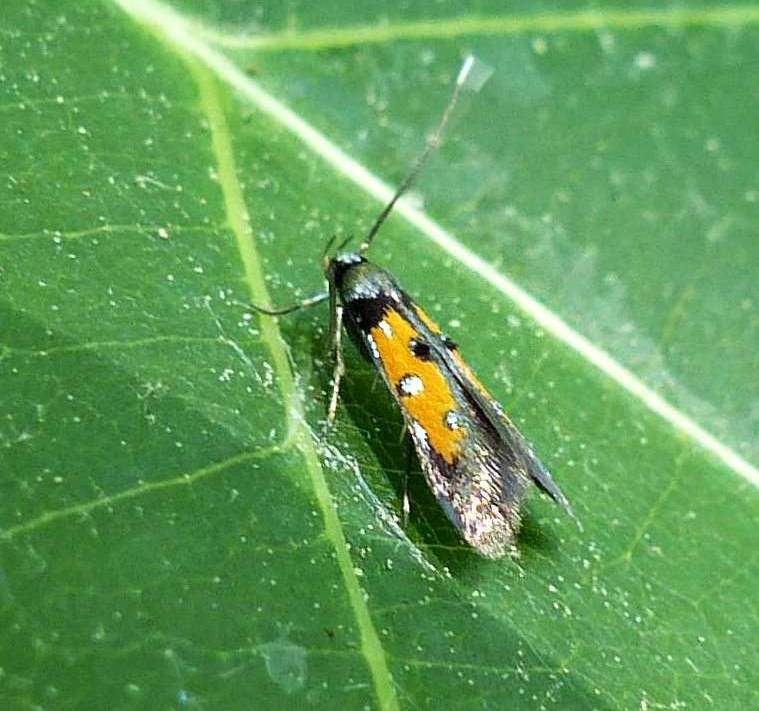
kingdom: Animalia
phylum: Arthropoda
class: Insecta
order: Lepidoptera
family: Elachistidae
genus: Chrysoclista
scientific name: Chrysoclista linneela
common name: Lime cosmet
